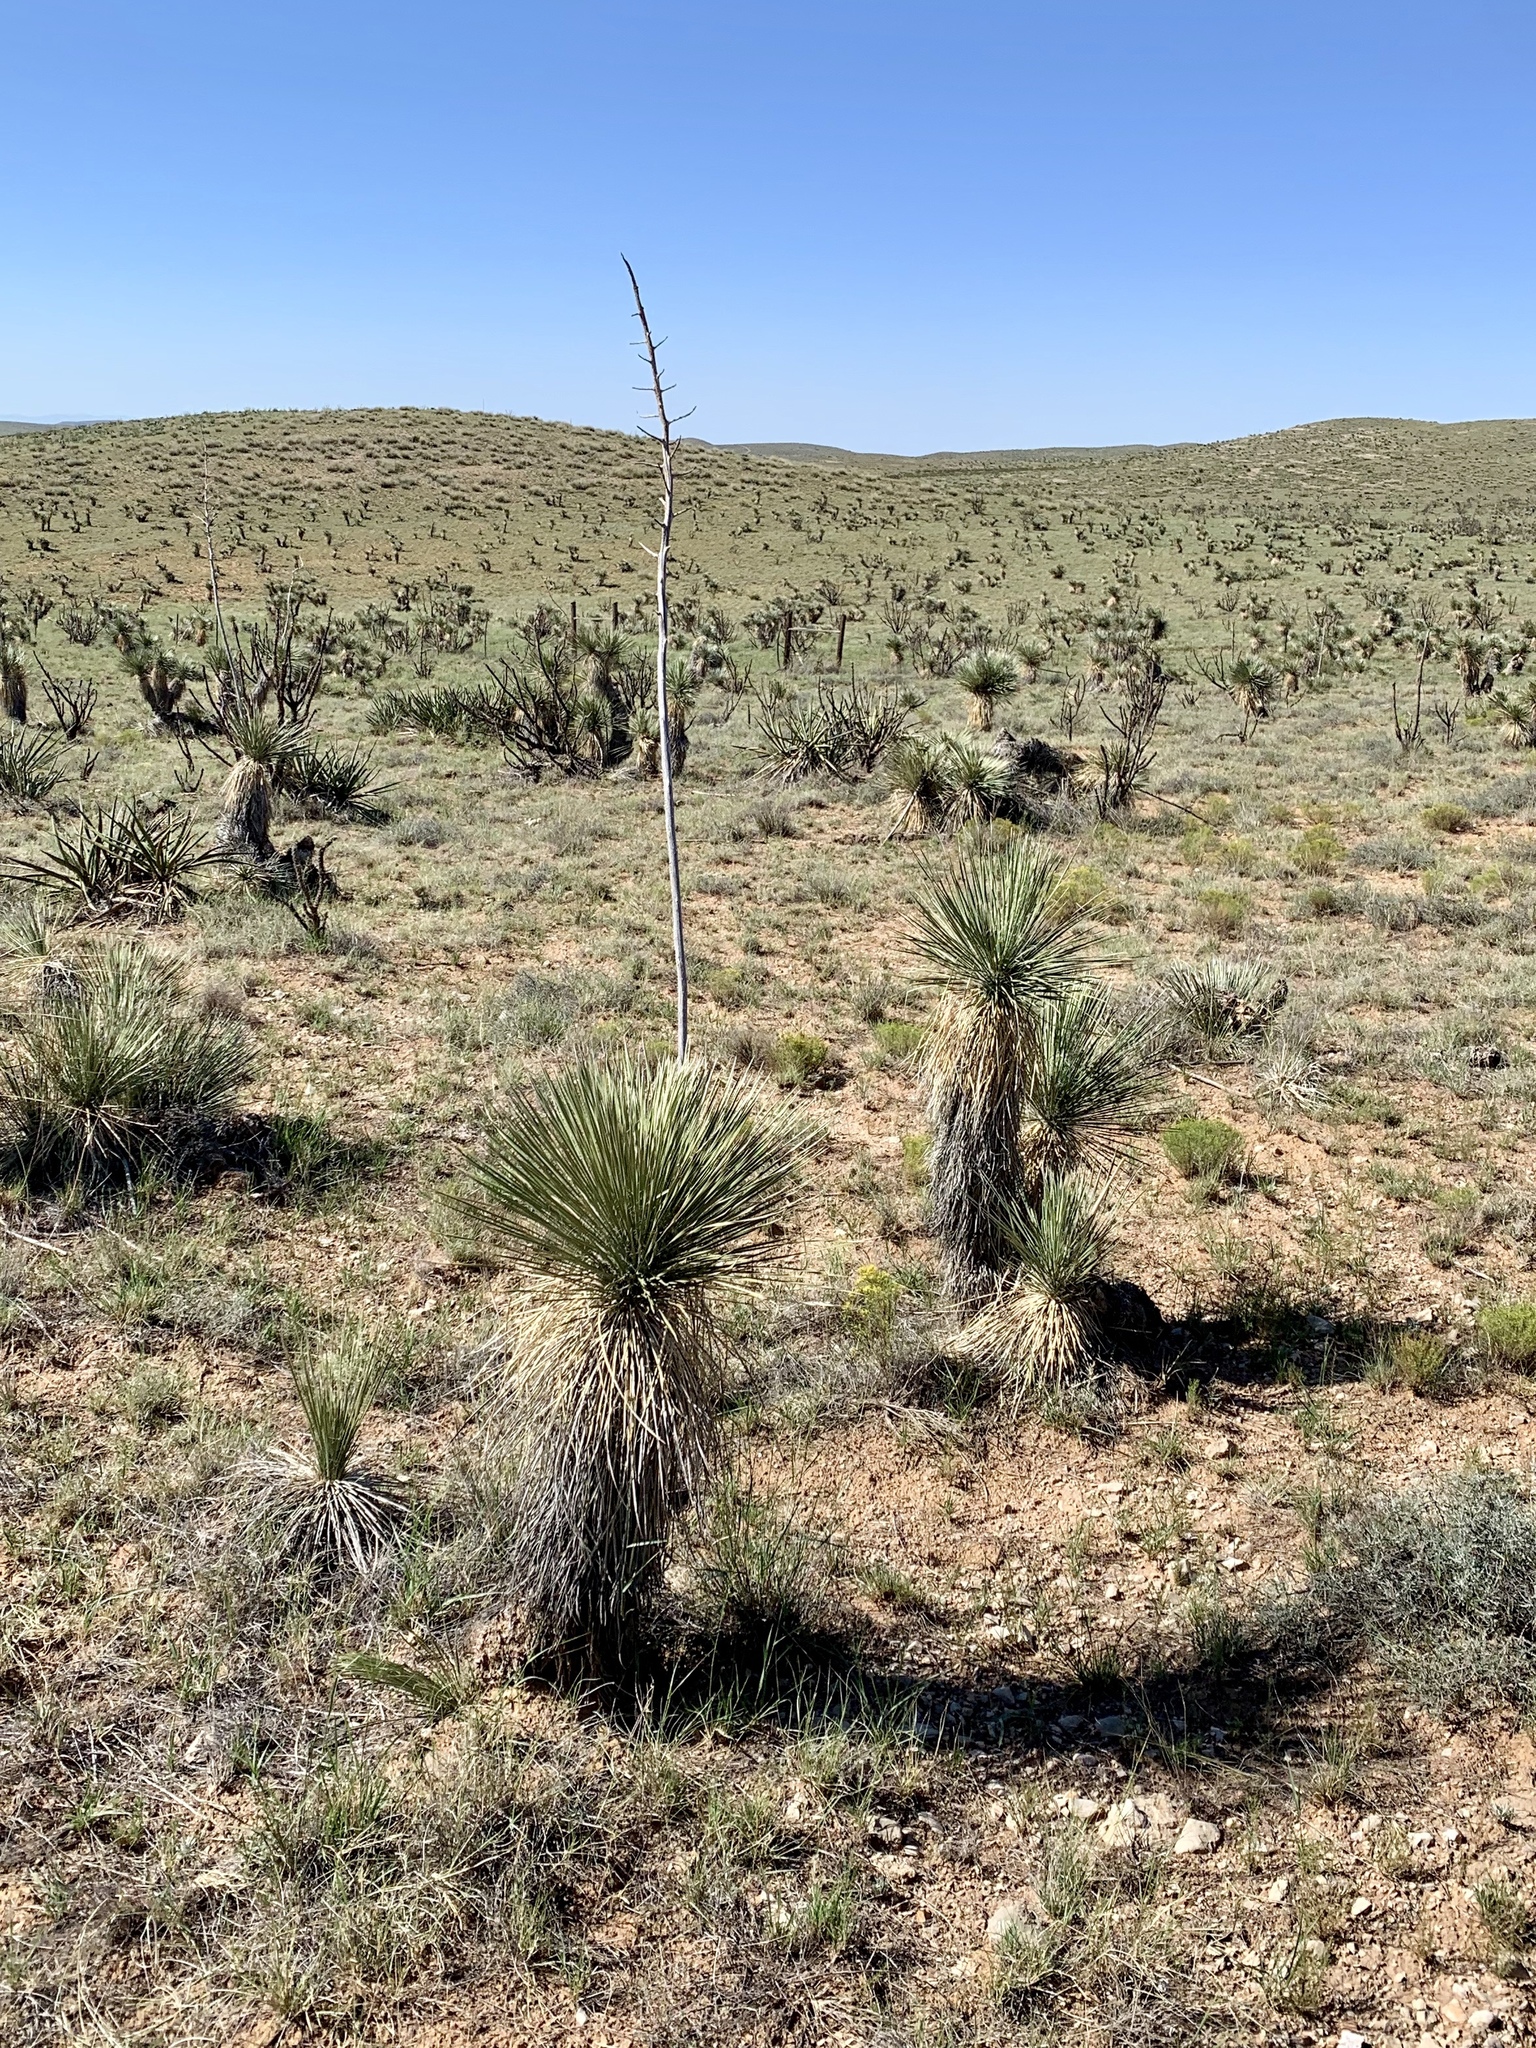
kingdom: Plantae
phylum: Tracheophyta
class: Liliopsida
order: Asparagales
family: Asparagaceae
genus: Yucca
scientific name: Yucca elata
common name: Palmella
